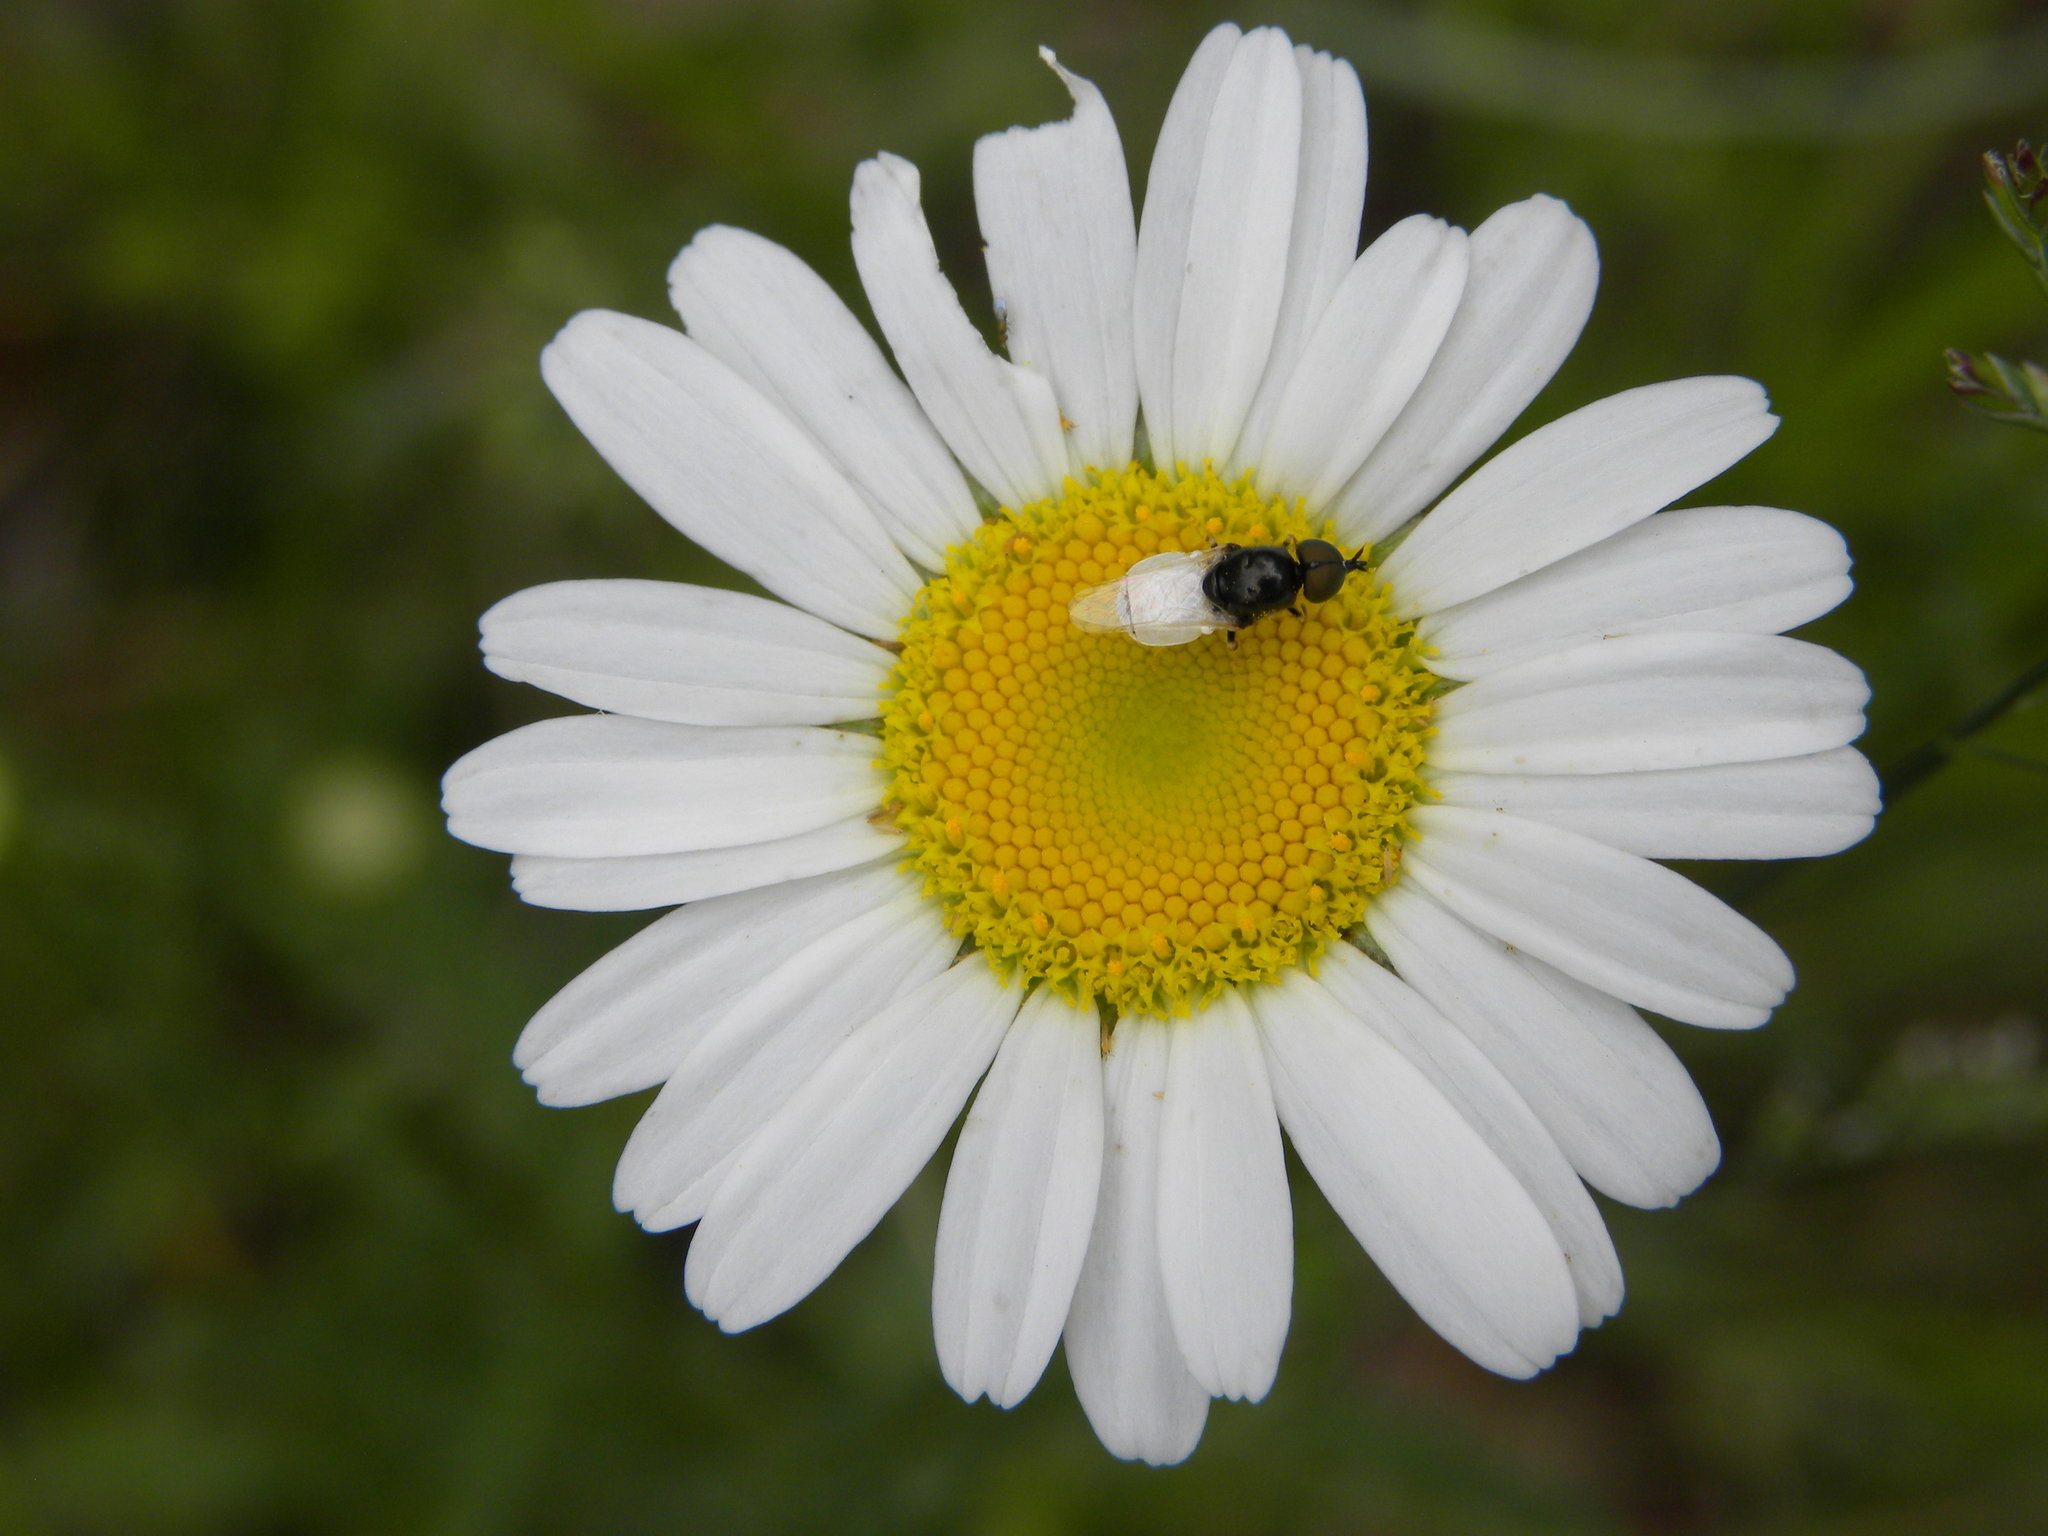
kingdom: Animalia
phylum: Arthropoda
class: Insecta
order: Diptera
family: Stratiomyidae
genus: Nemotelus
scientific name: Nemotelus
